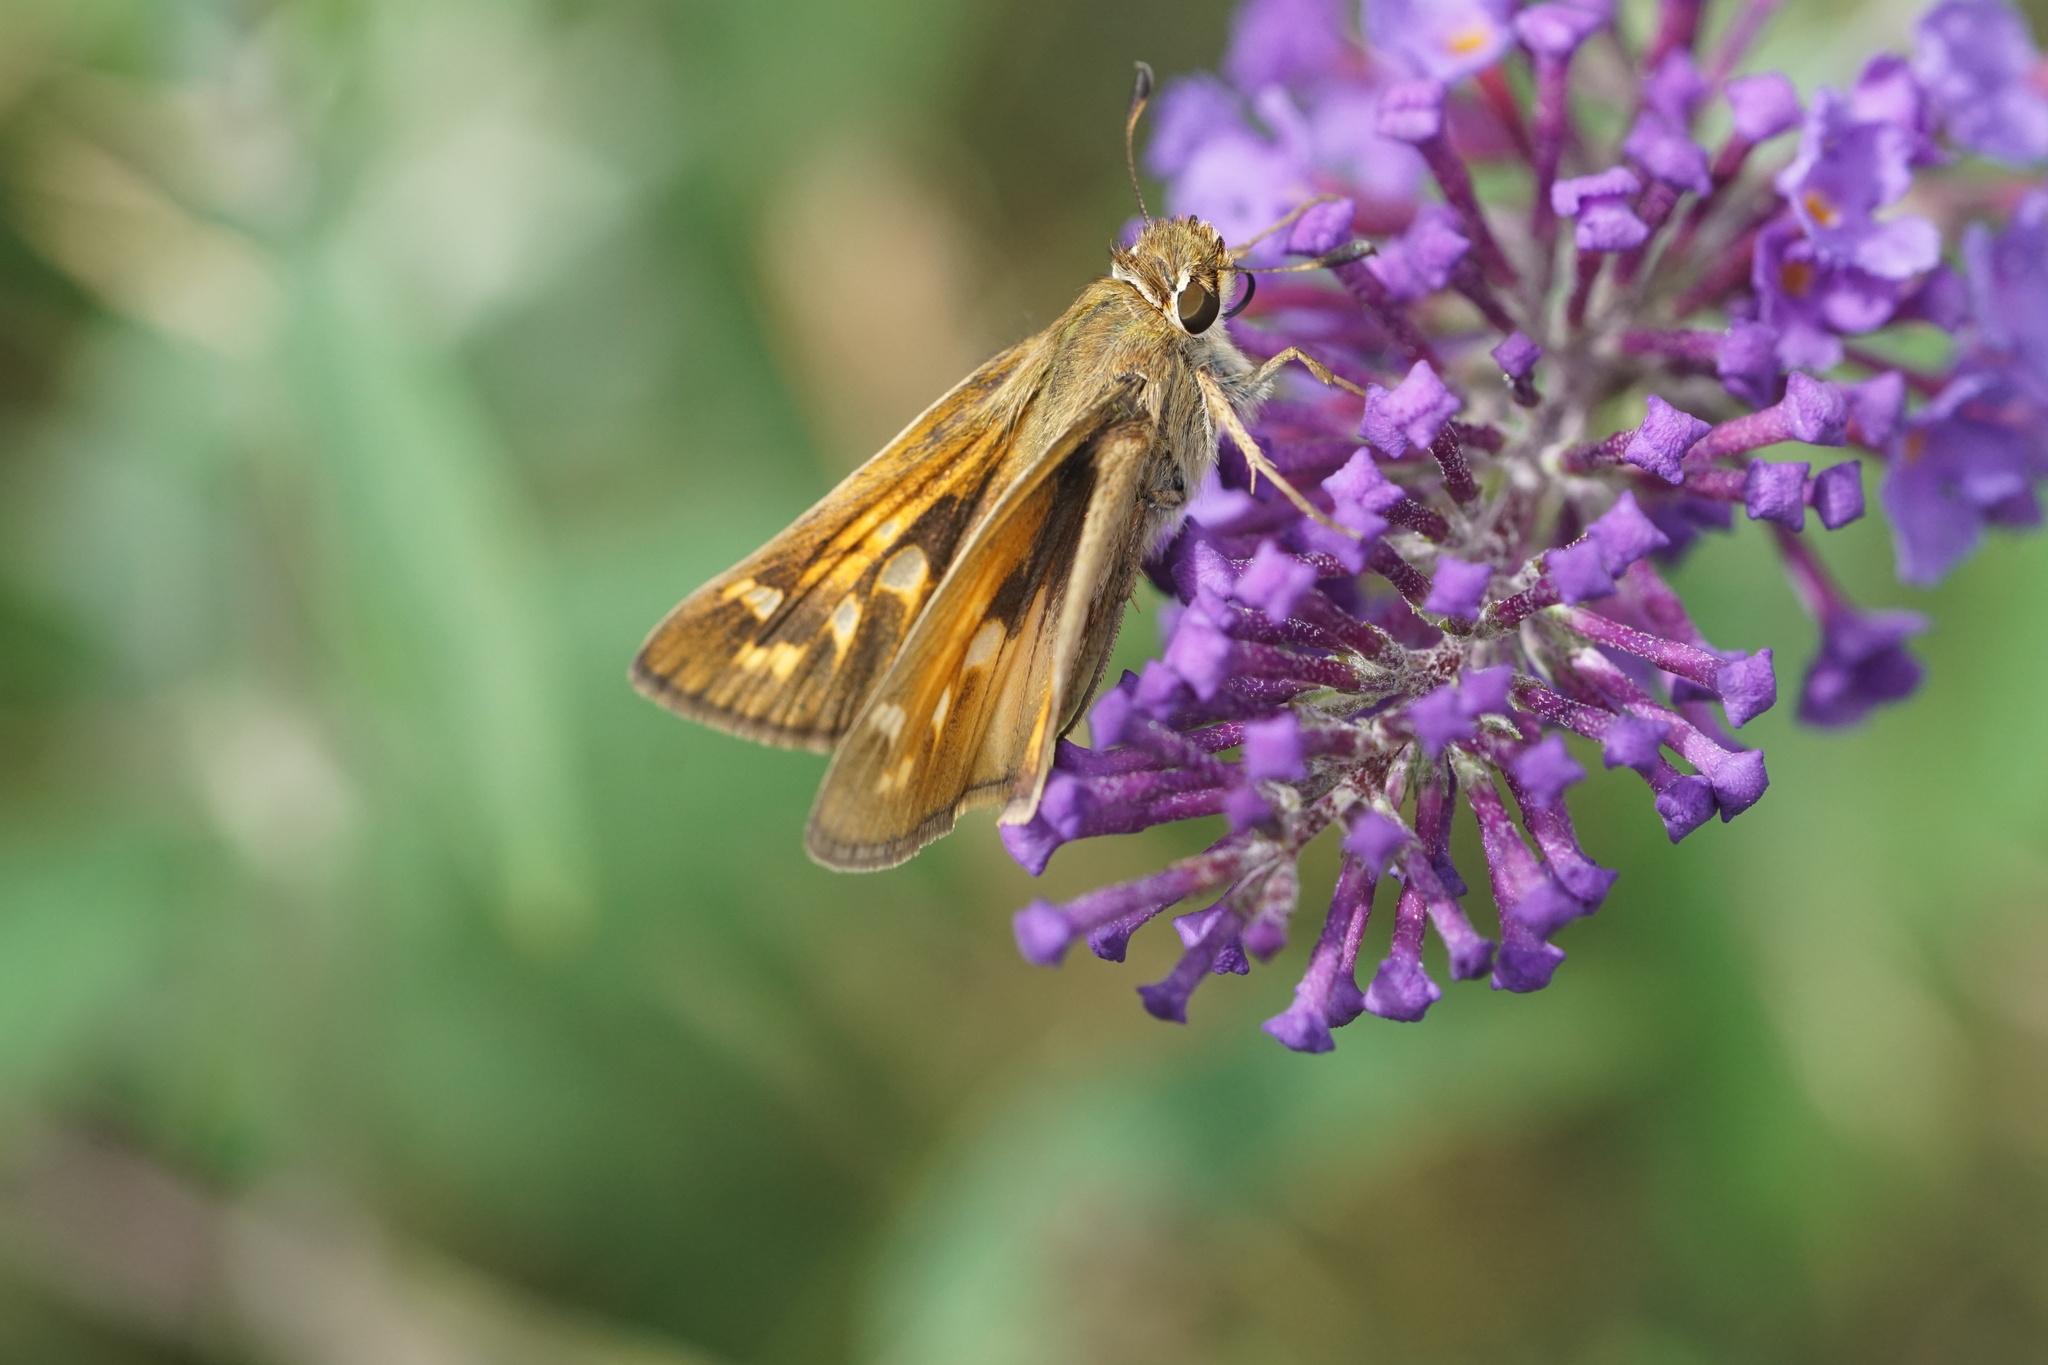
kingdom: Animalia
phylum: Arthropoda
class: Insecta
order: Lepidoptera
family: Hesperiidae
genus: Atalopedes
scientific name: Atalopedes
